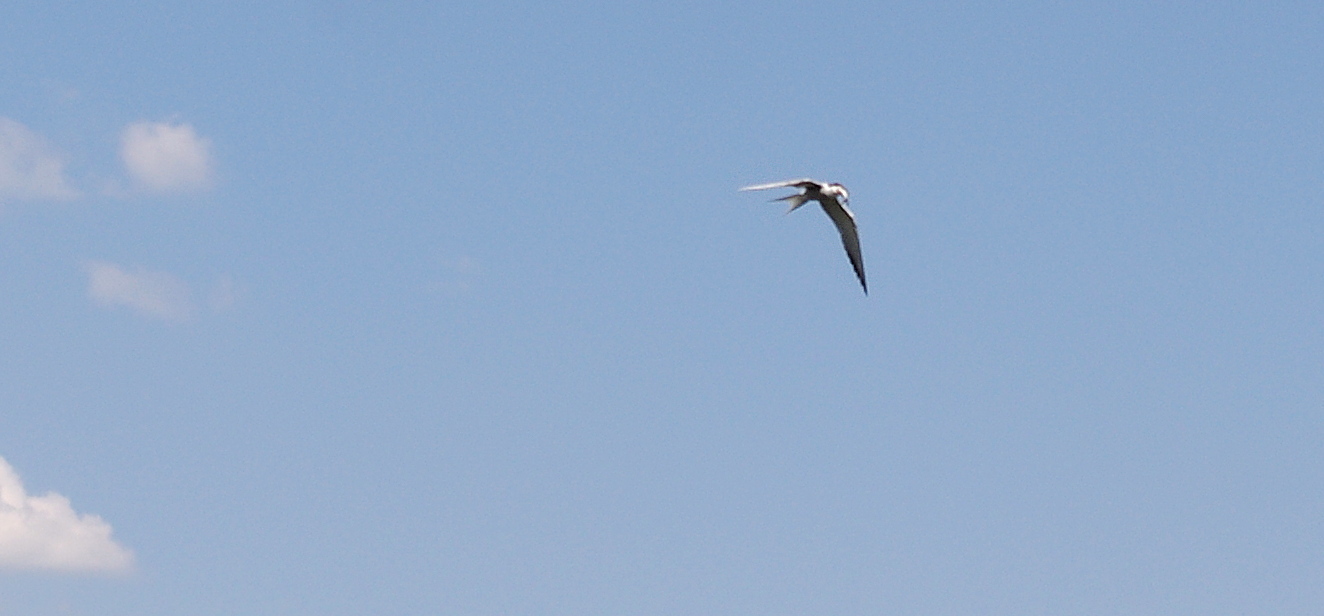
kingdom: Animalia
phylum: Chordata
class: Aves
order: Charadriiformes
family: Laridae
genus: Sterna
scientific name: Sterna hirundo
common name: Common tern
